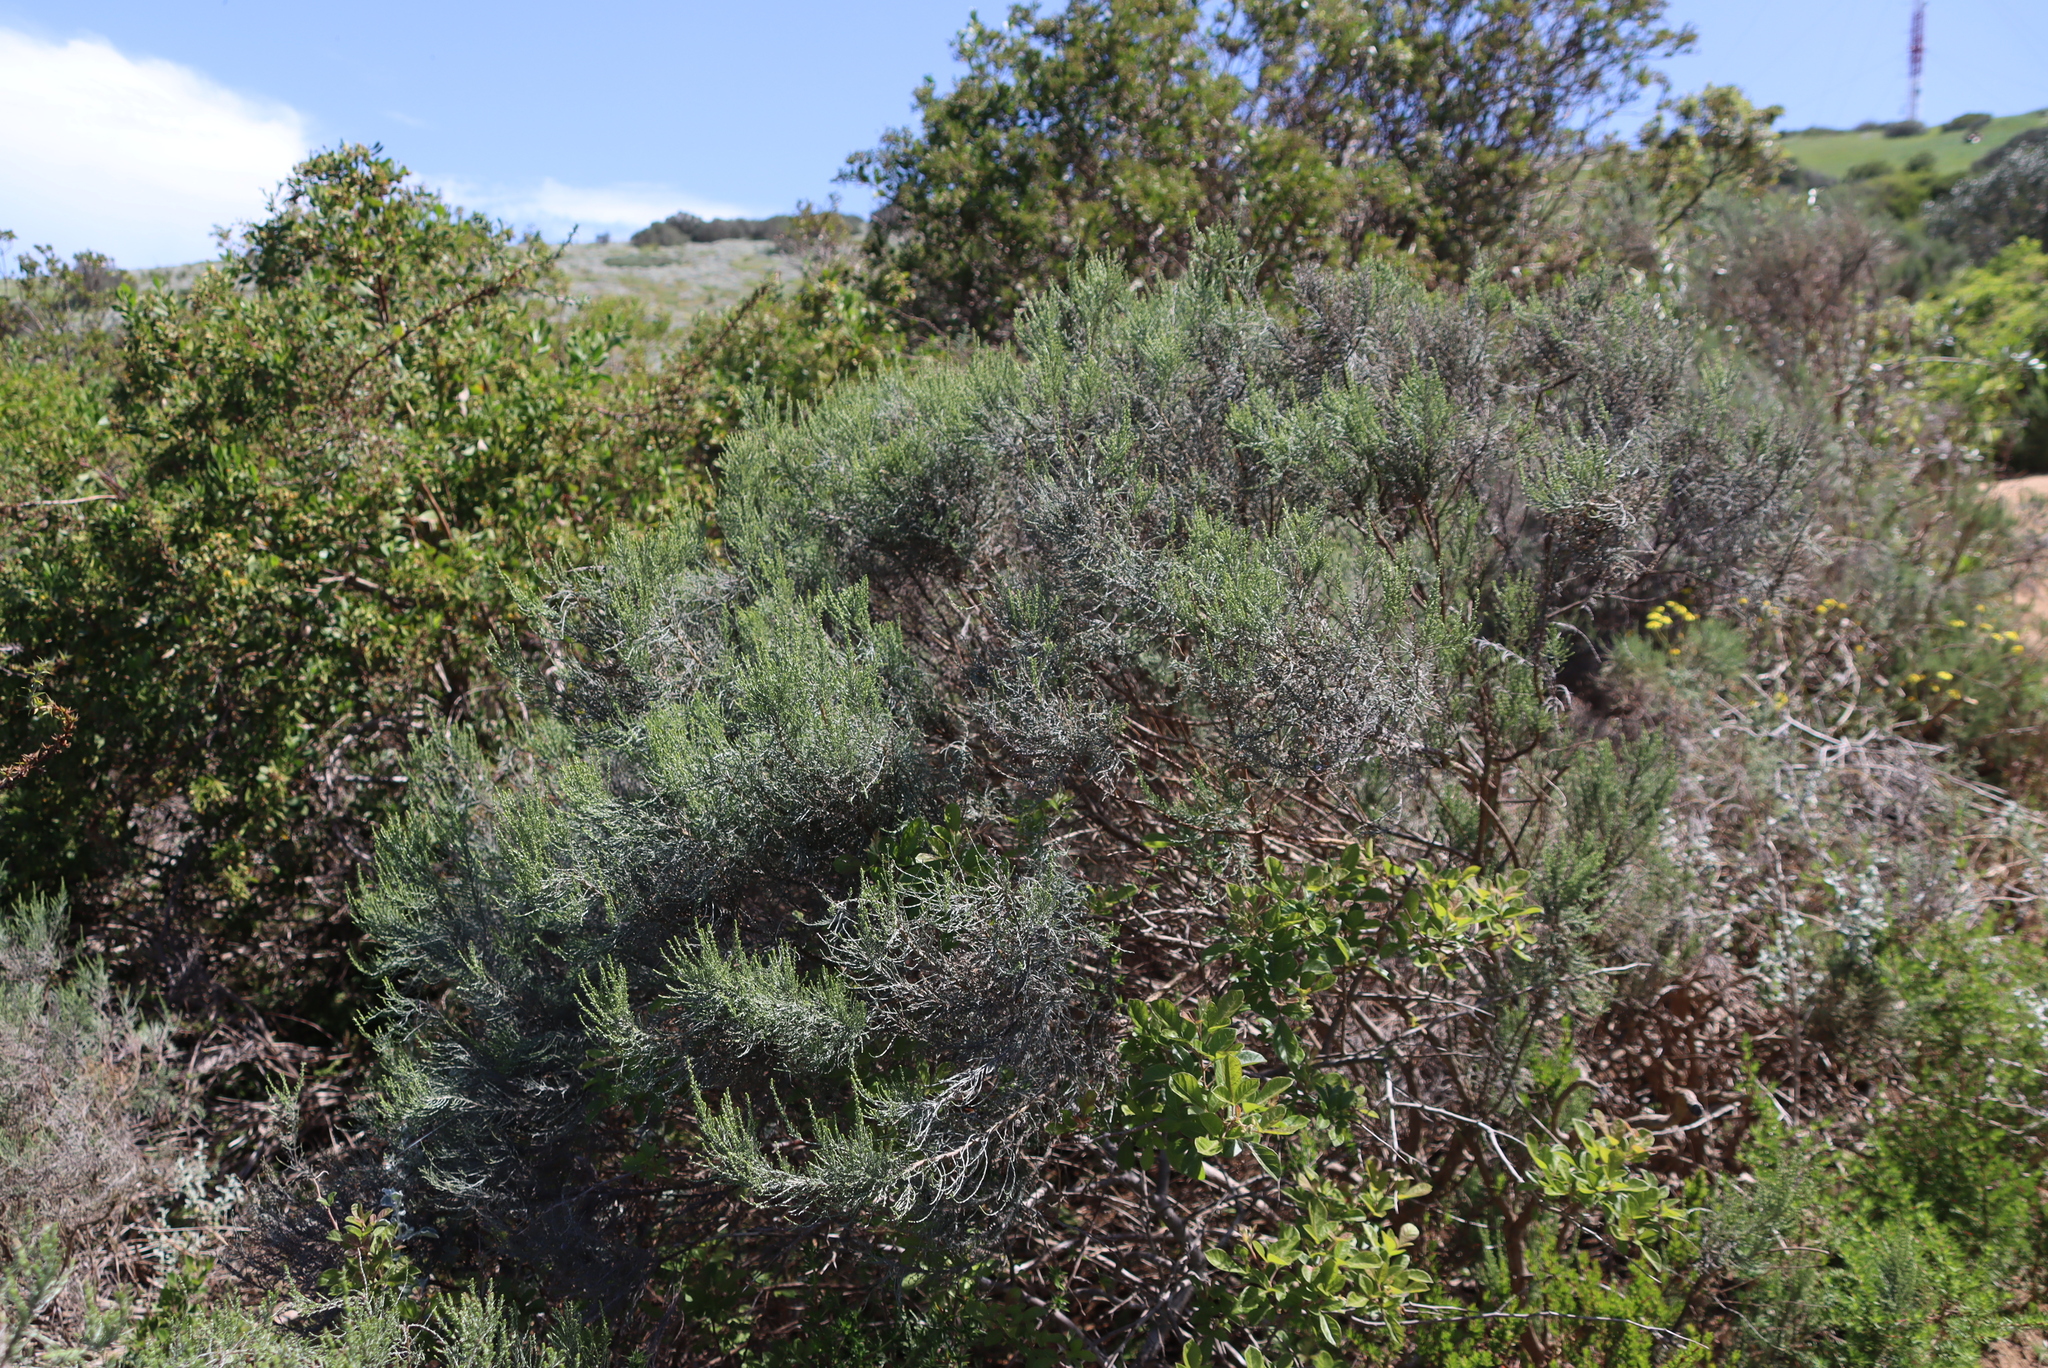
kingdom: Plantae
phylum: Tracheophyta
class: Magnoliopsida
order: Asterales
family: Asteraceae
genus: Dicerothamnus
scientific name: Dicerothamnus rhinocerotis
